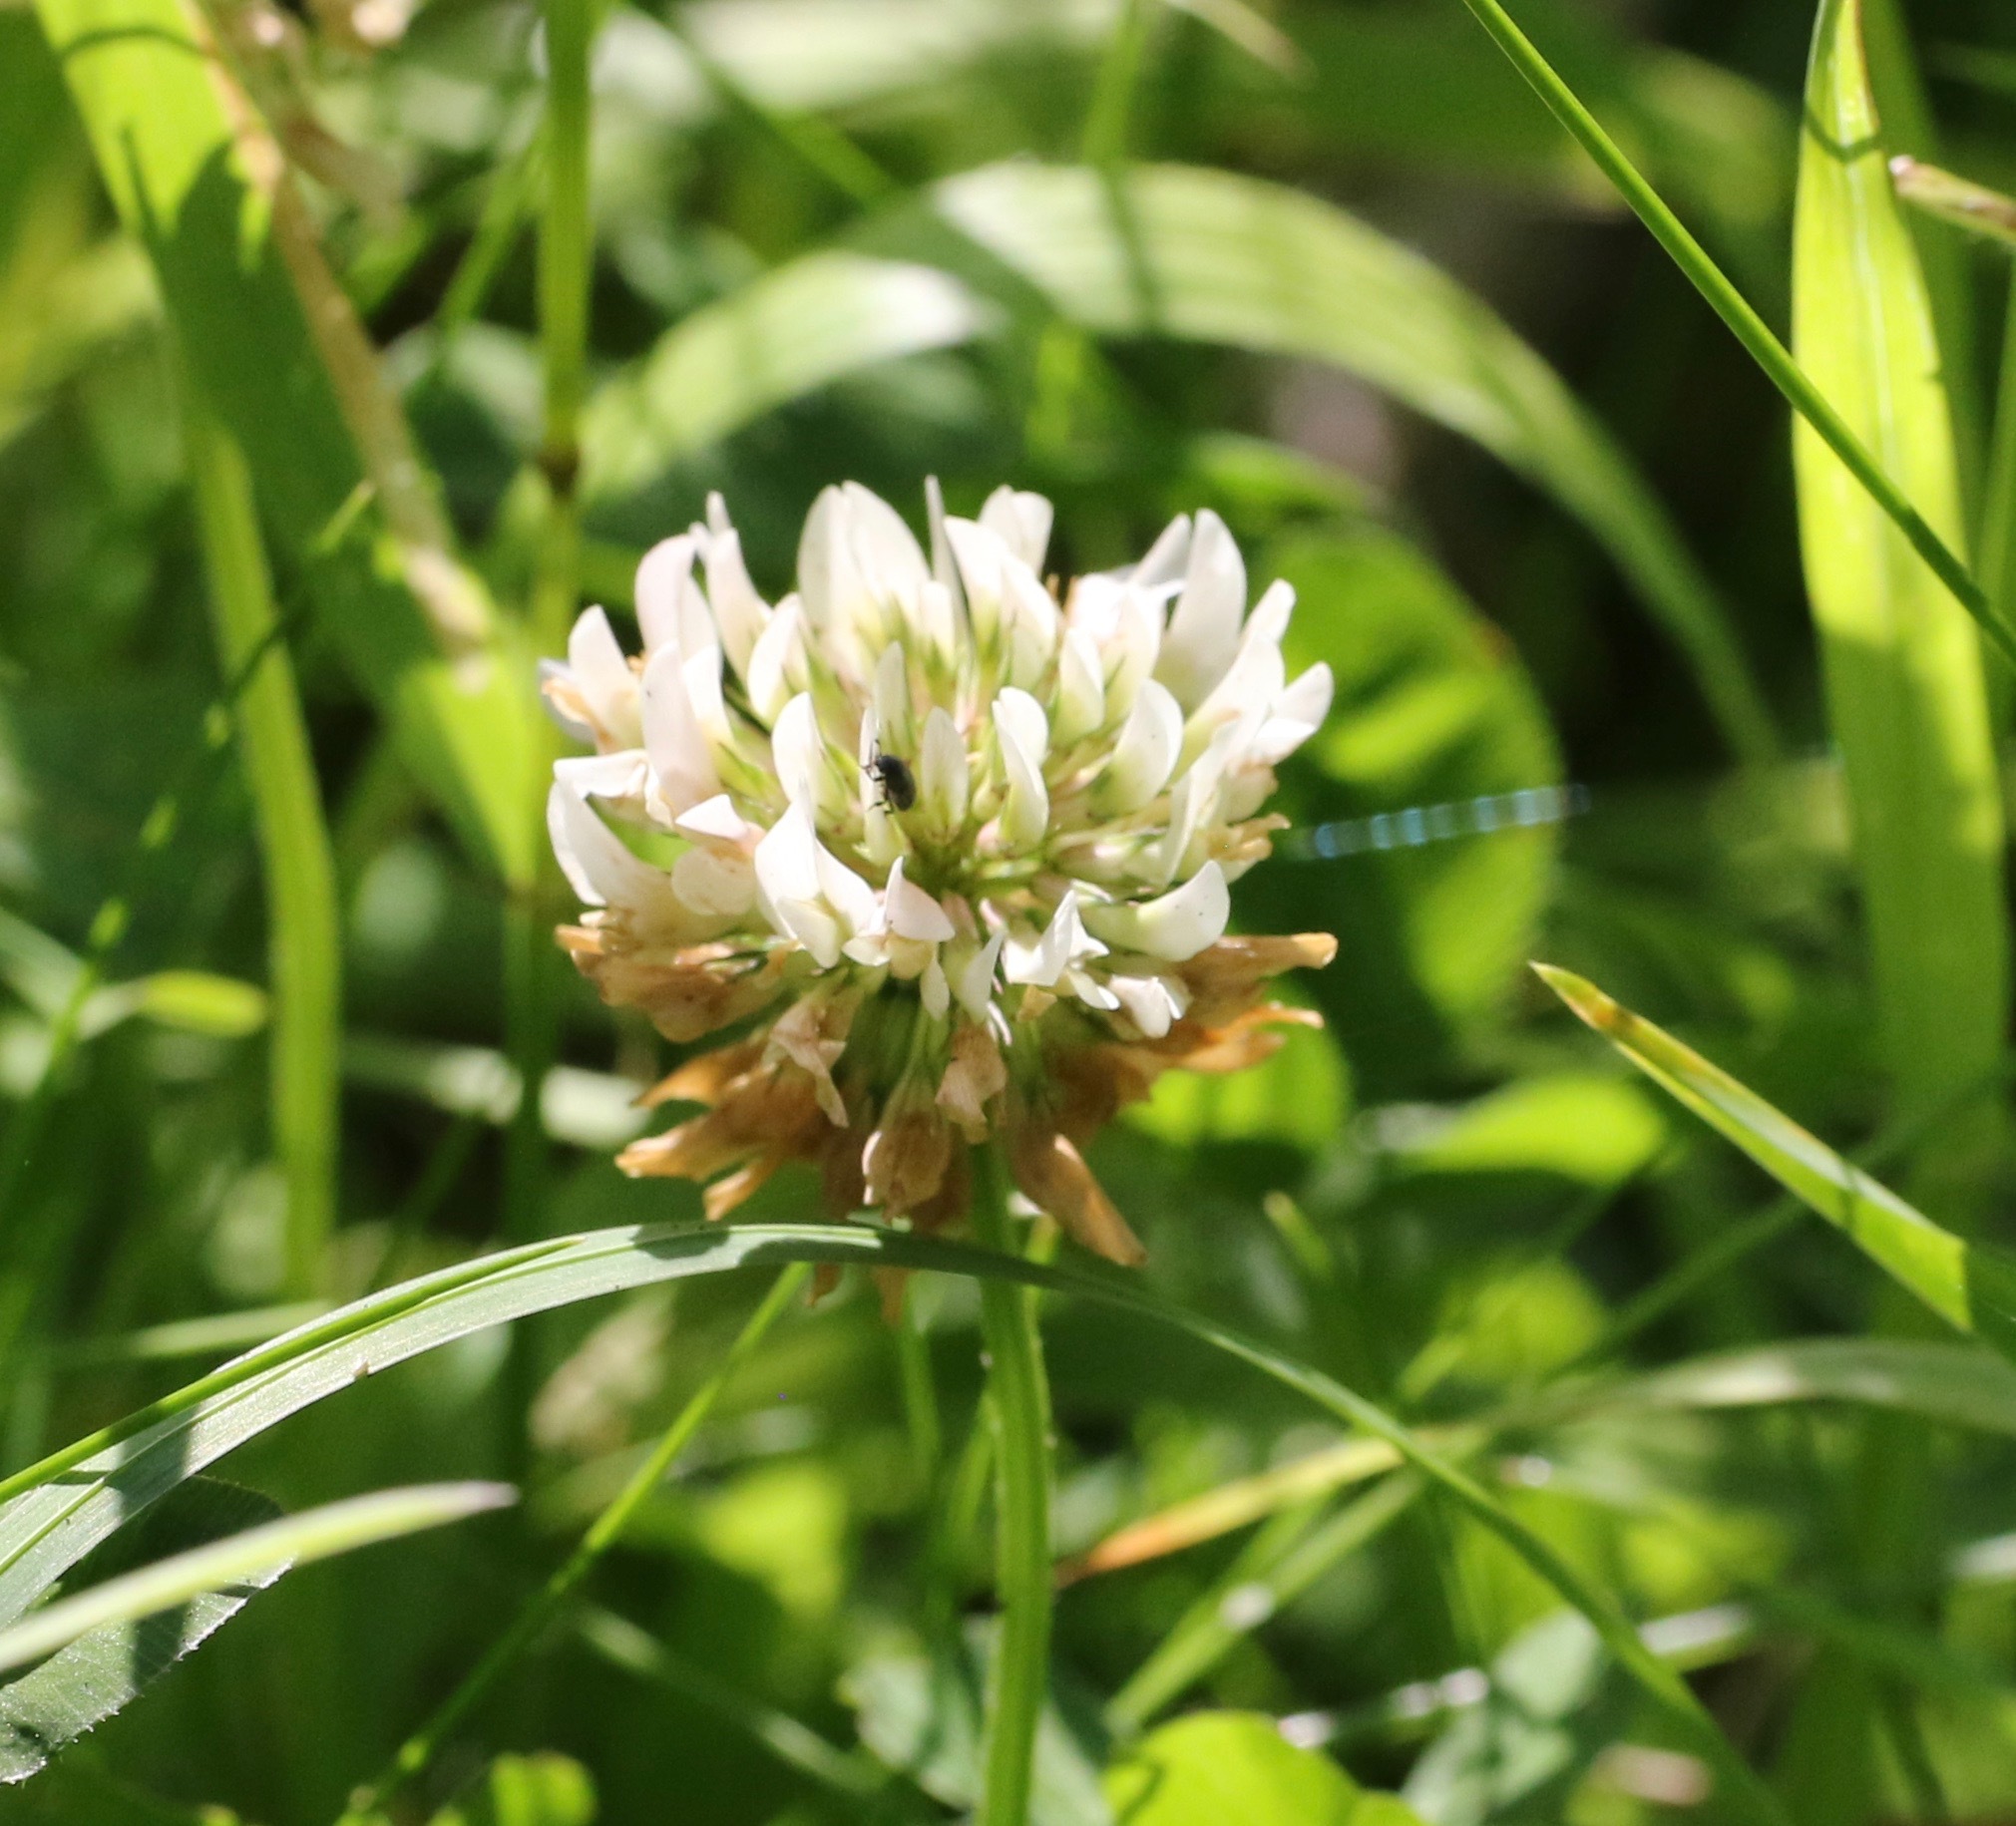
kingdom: Plantae
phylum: Tracheophyta
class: Magnoliopsida
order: Fabales
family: Fabaceae
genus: Trifolium
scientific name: Trifolium repens
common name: White clover
